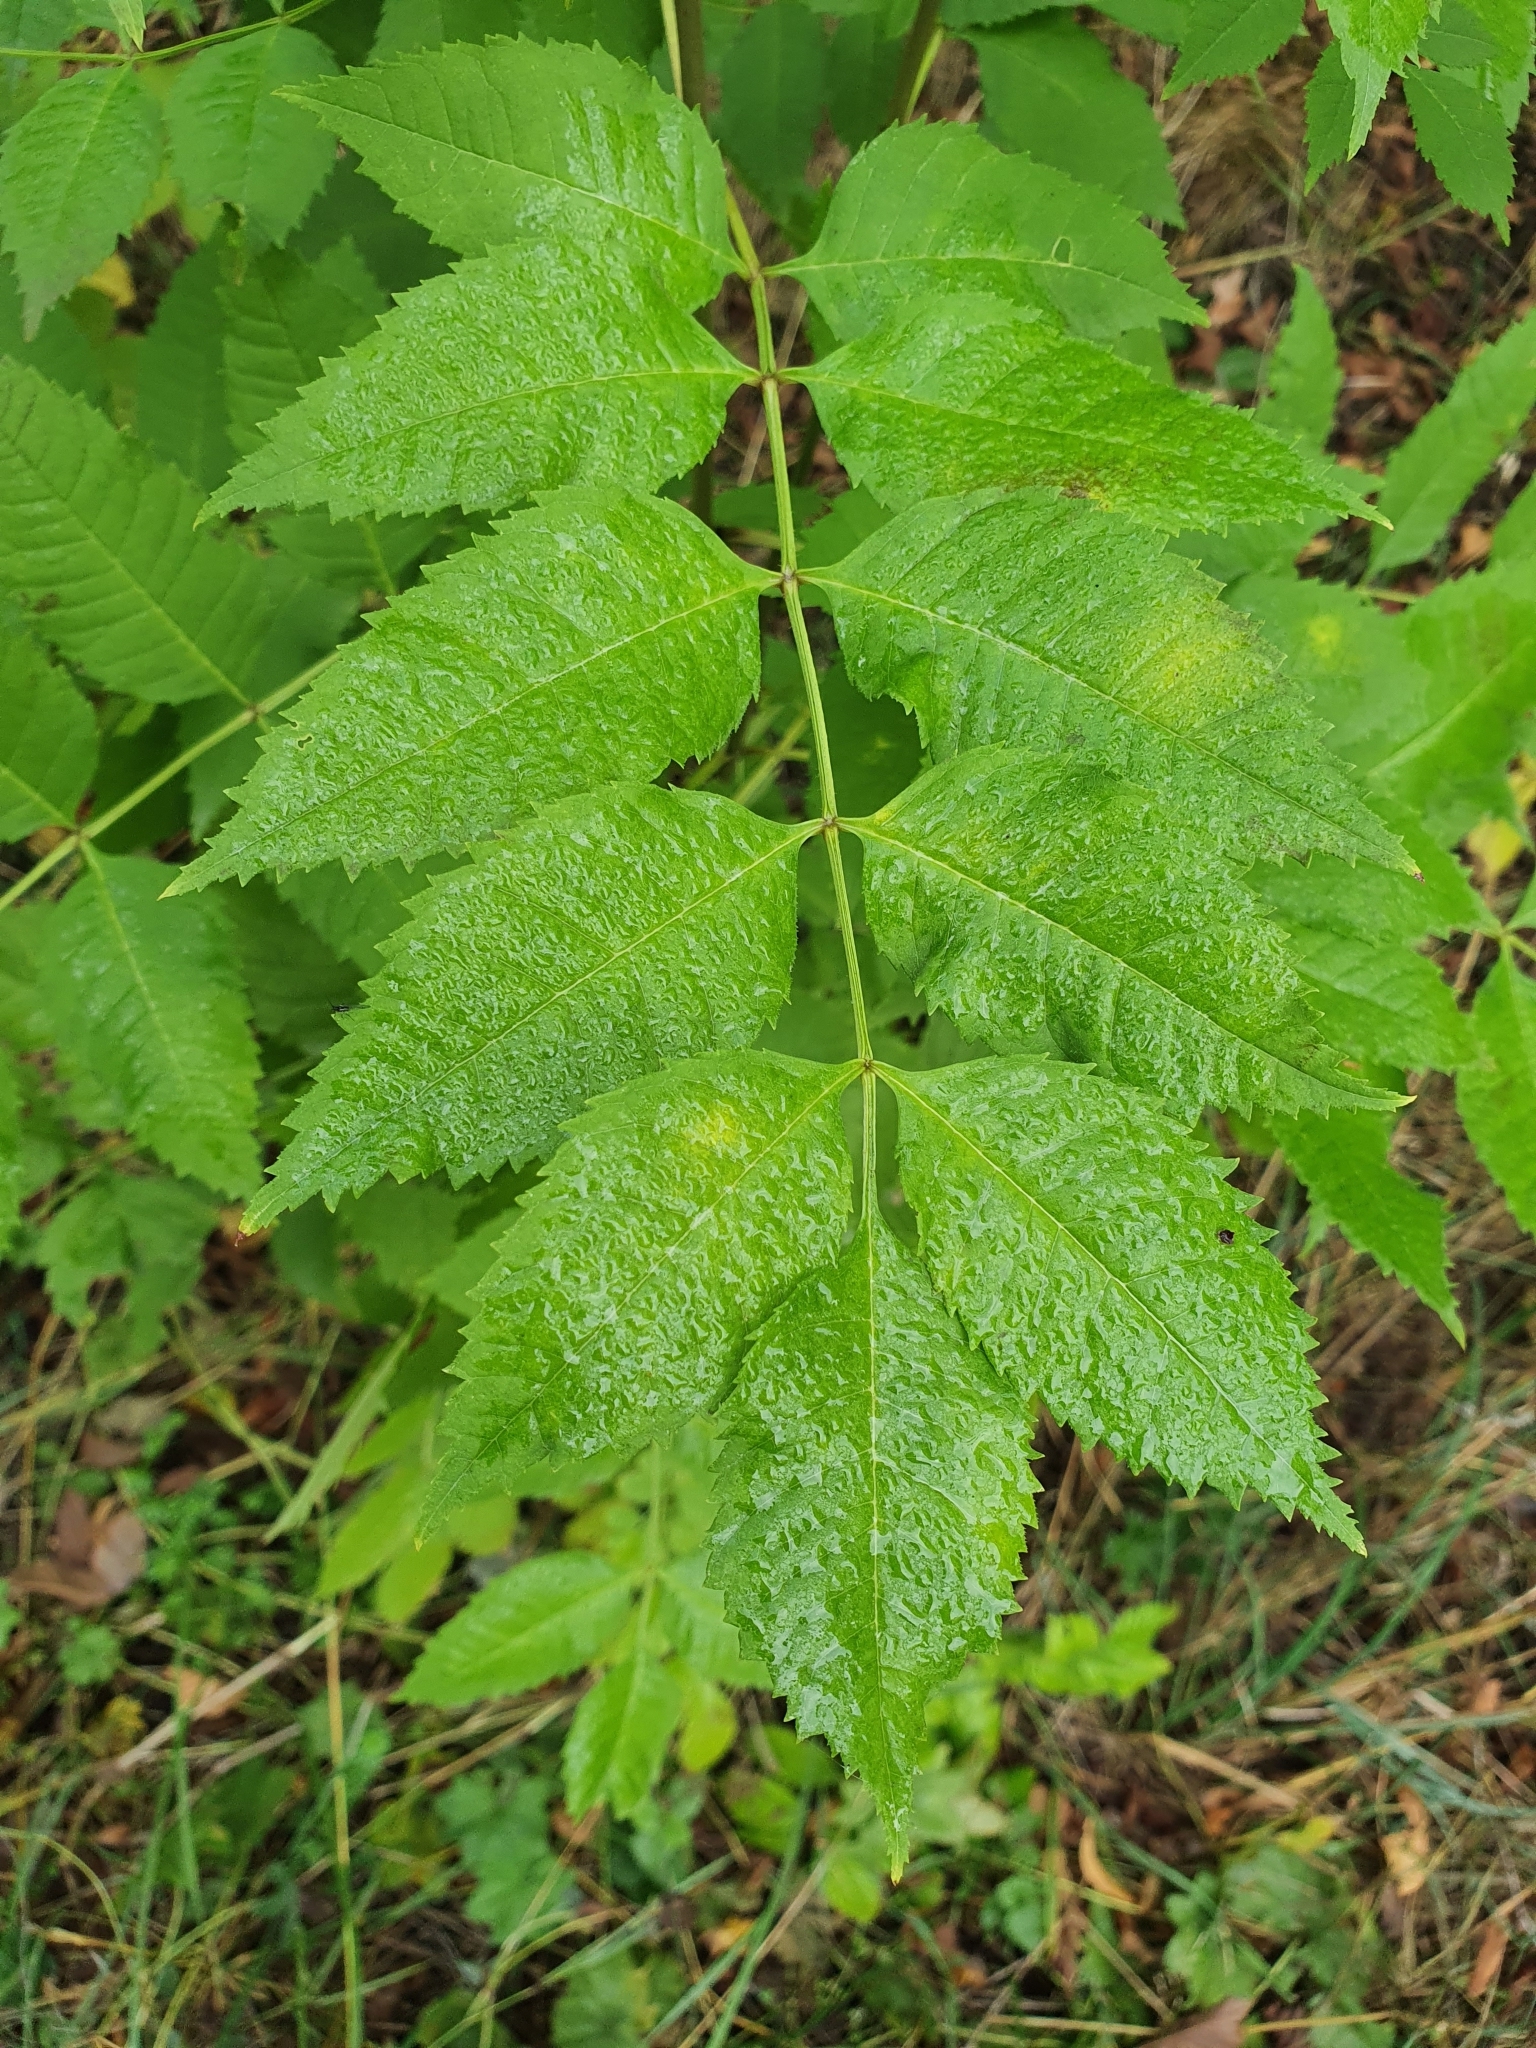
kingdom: Plantae
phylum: Tracheophyta
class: Magnoliopsida
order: Lamiales
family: Oleaceae
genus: Fraxinus
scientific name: Fraxinus excelsior
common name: European ash
